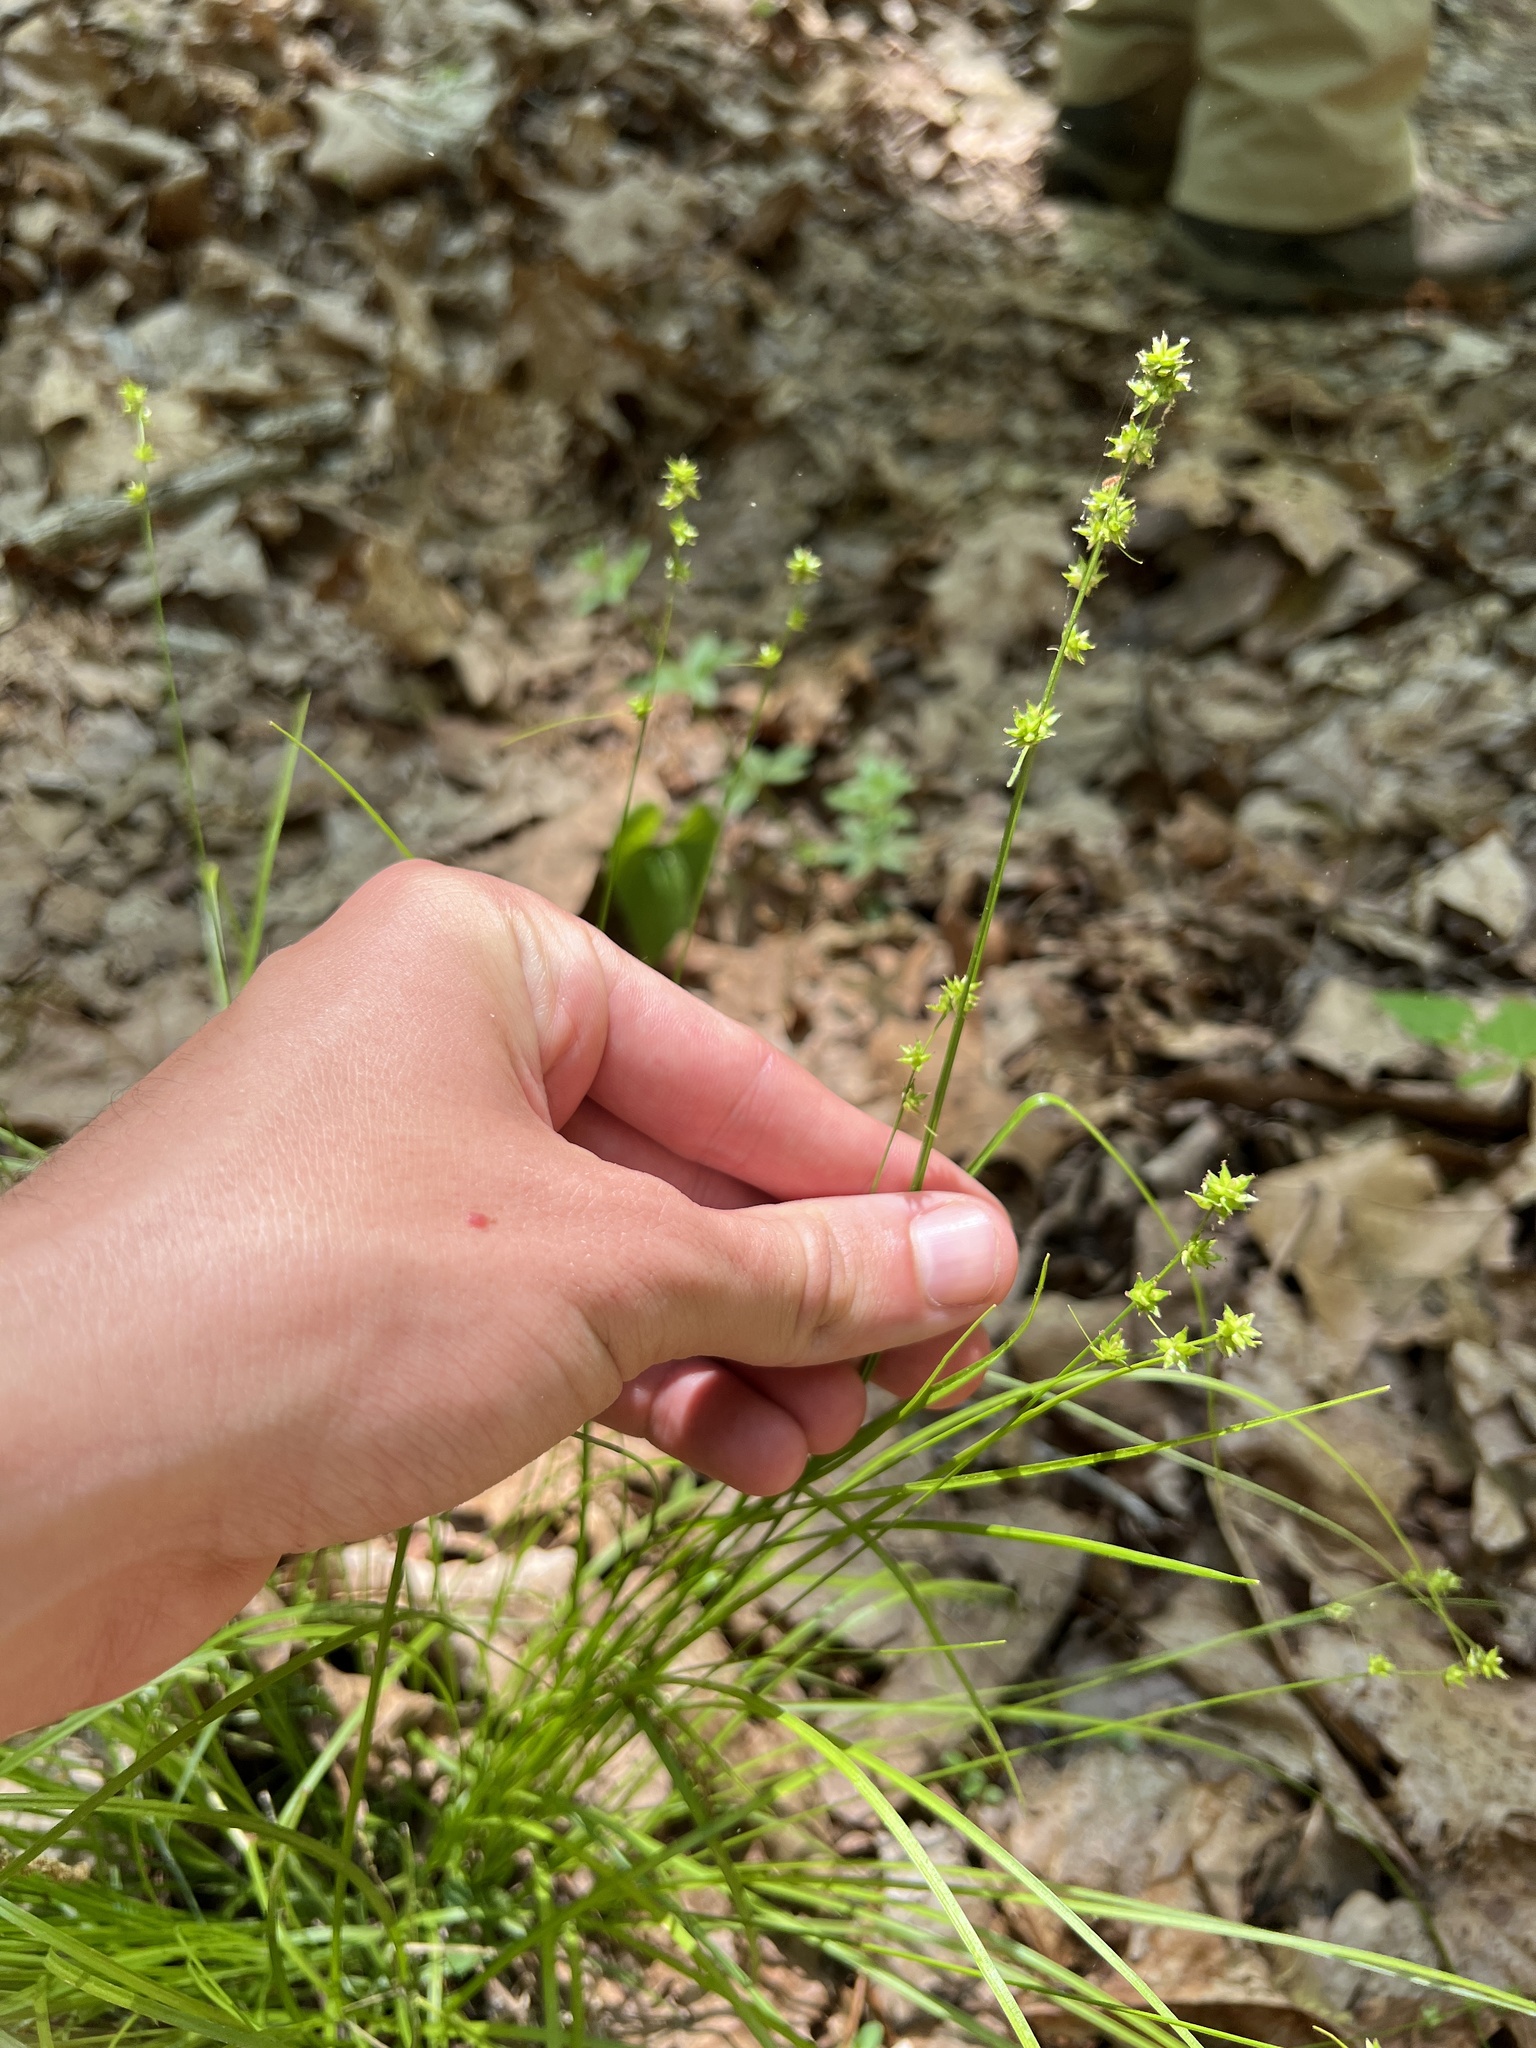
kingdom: Plantae
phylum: Tracheophyta
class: Liliopsida
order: Poales
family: Cyperaceae
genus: Carex
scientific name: Carex rosea
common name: Curly-styled wood sedge
